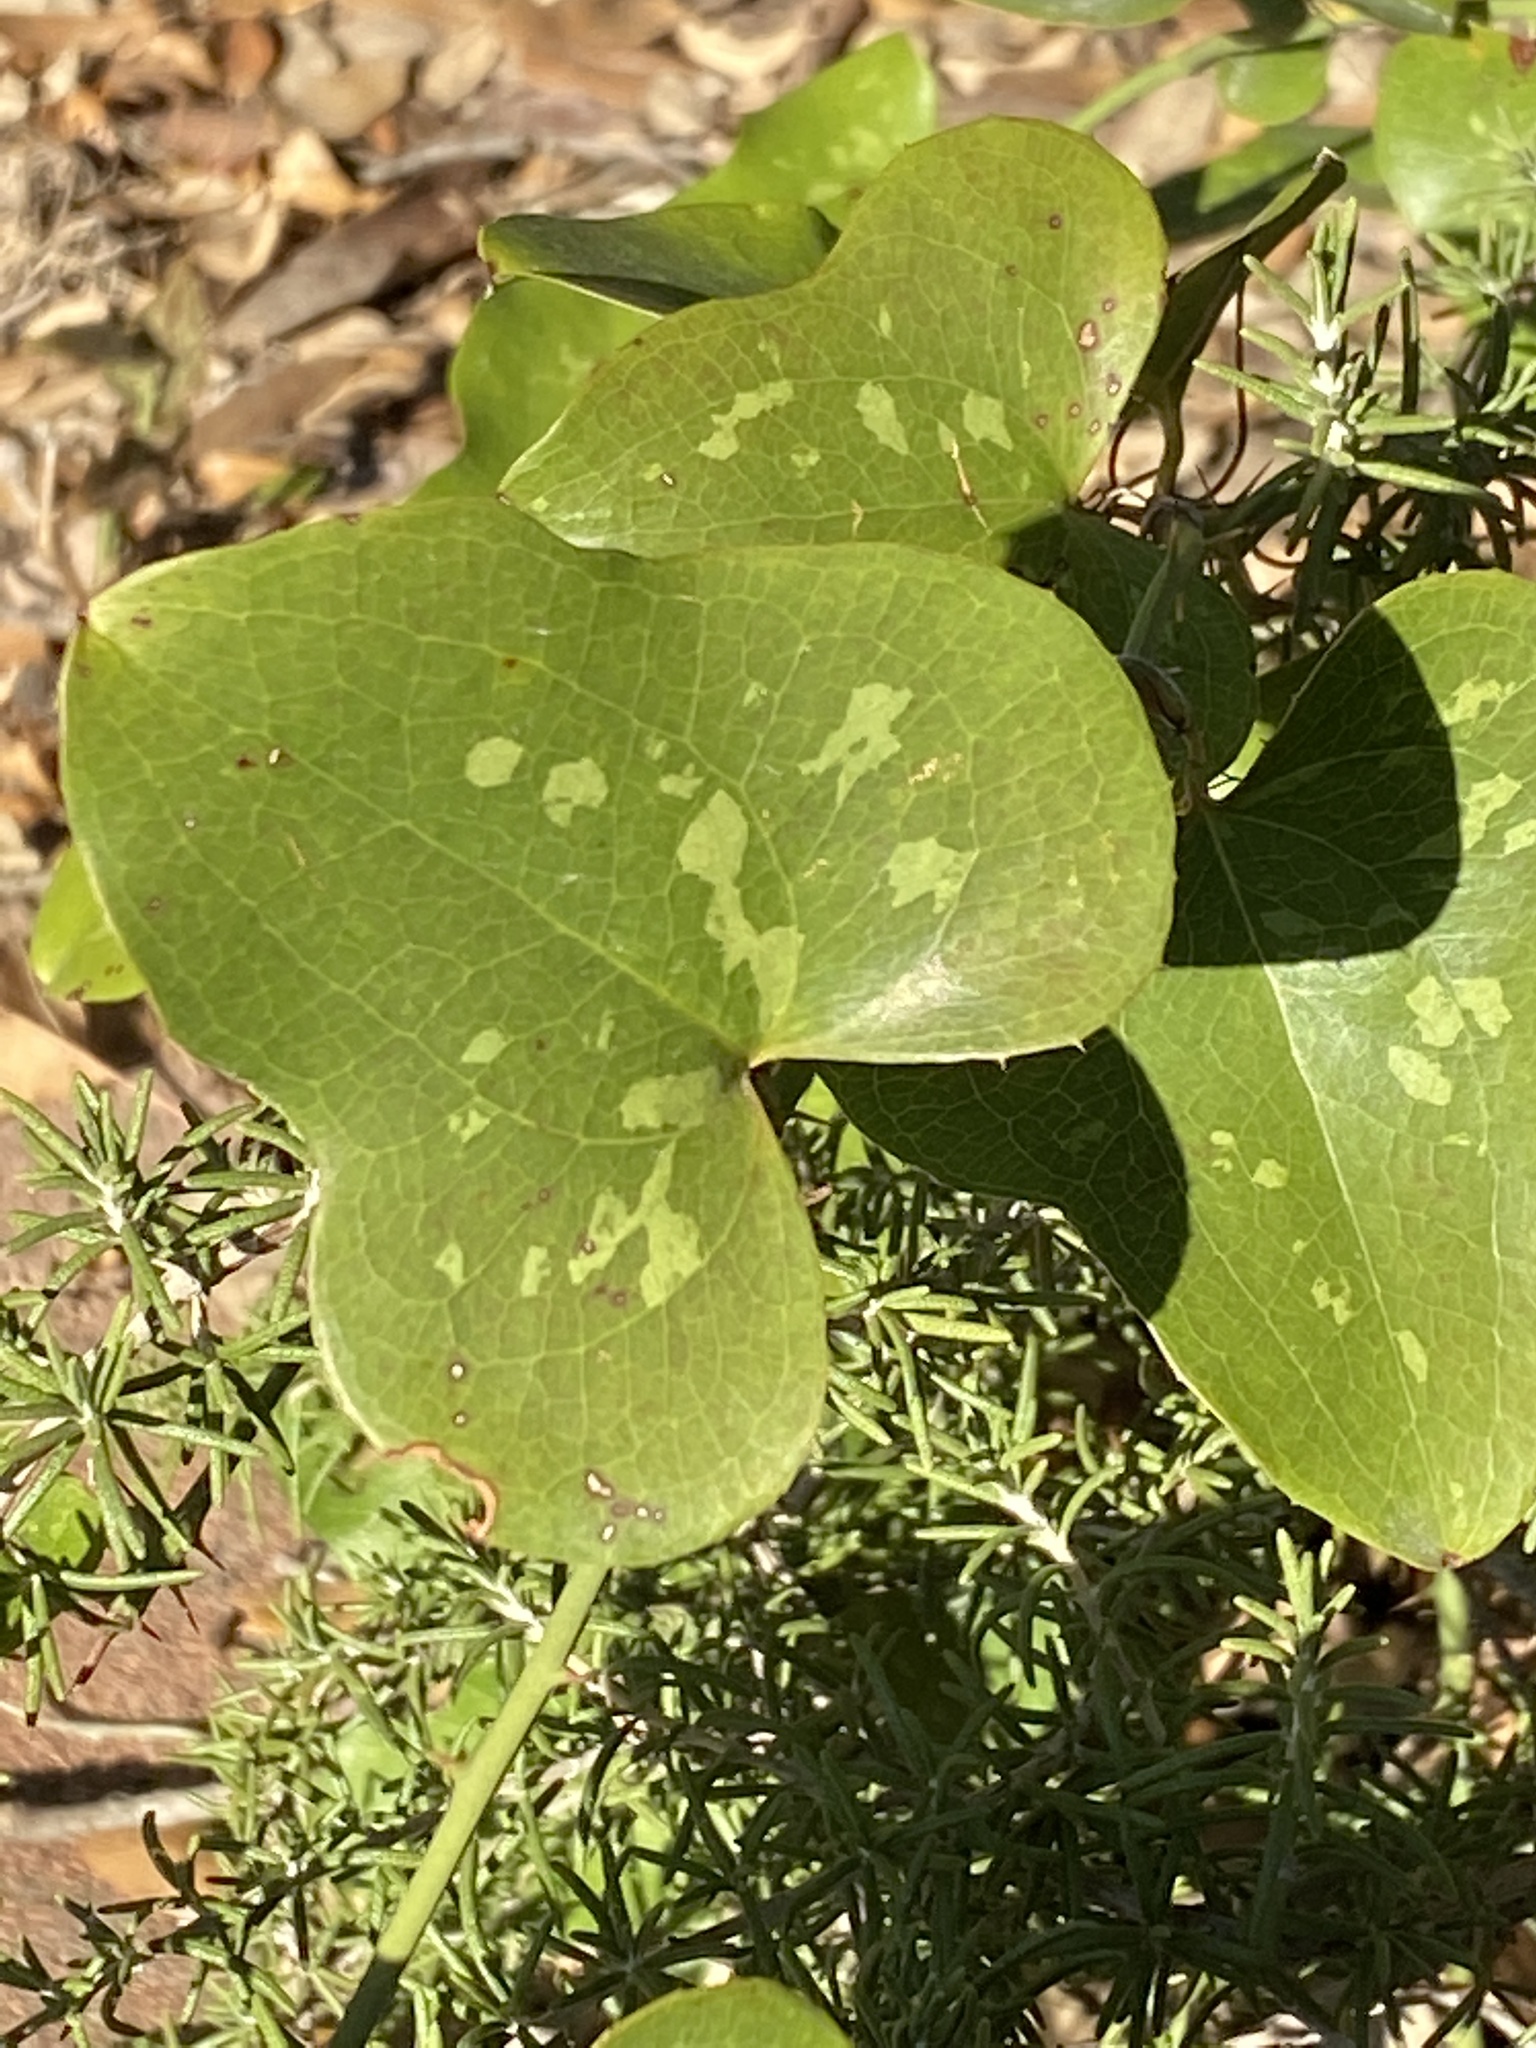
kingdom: Plantae
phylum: Tracheophyta
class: Liliopsida
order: Liliales
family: Smilacaceae
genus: Smilax
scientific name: Smilax bona-nox
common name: Catbrier
